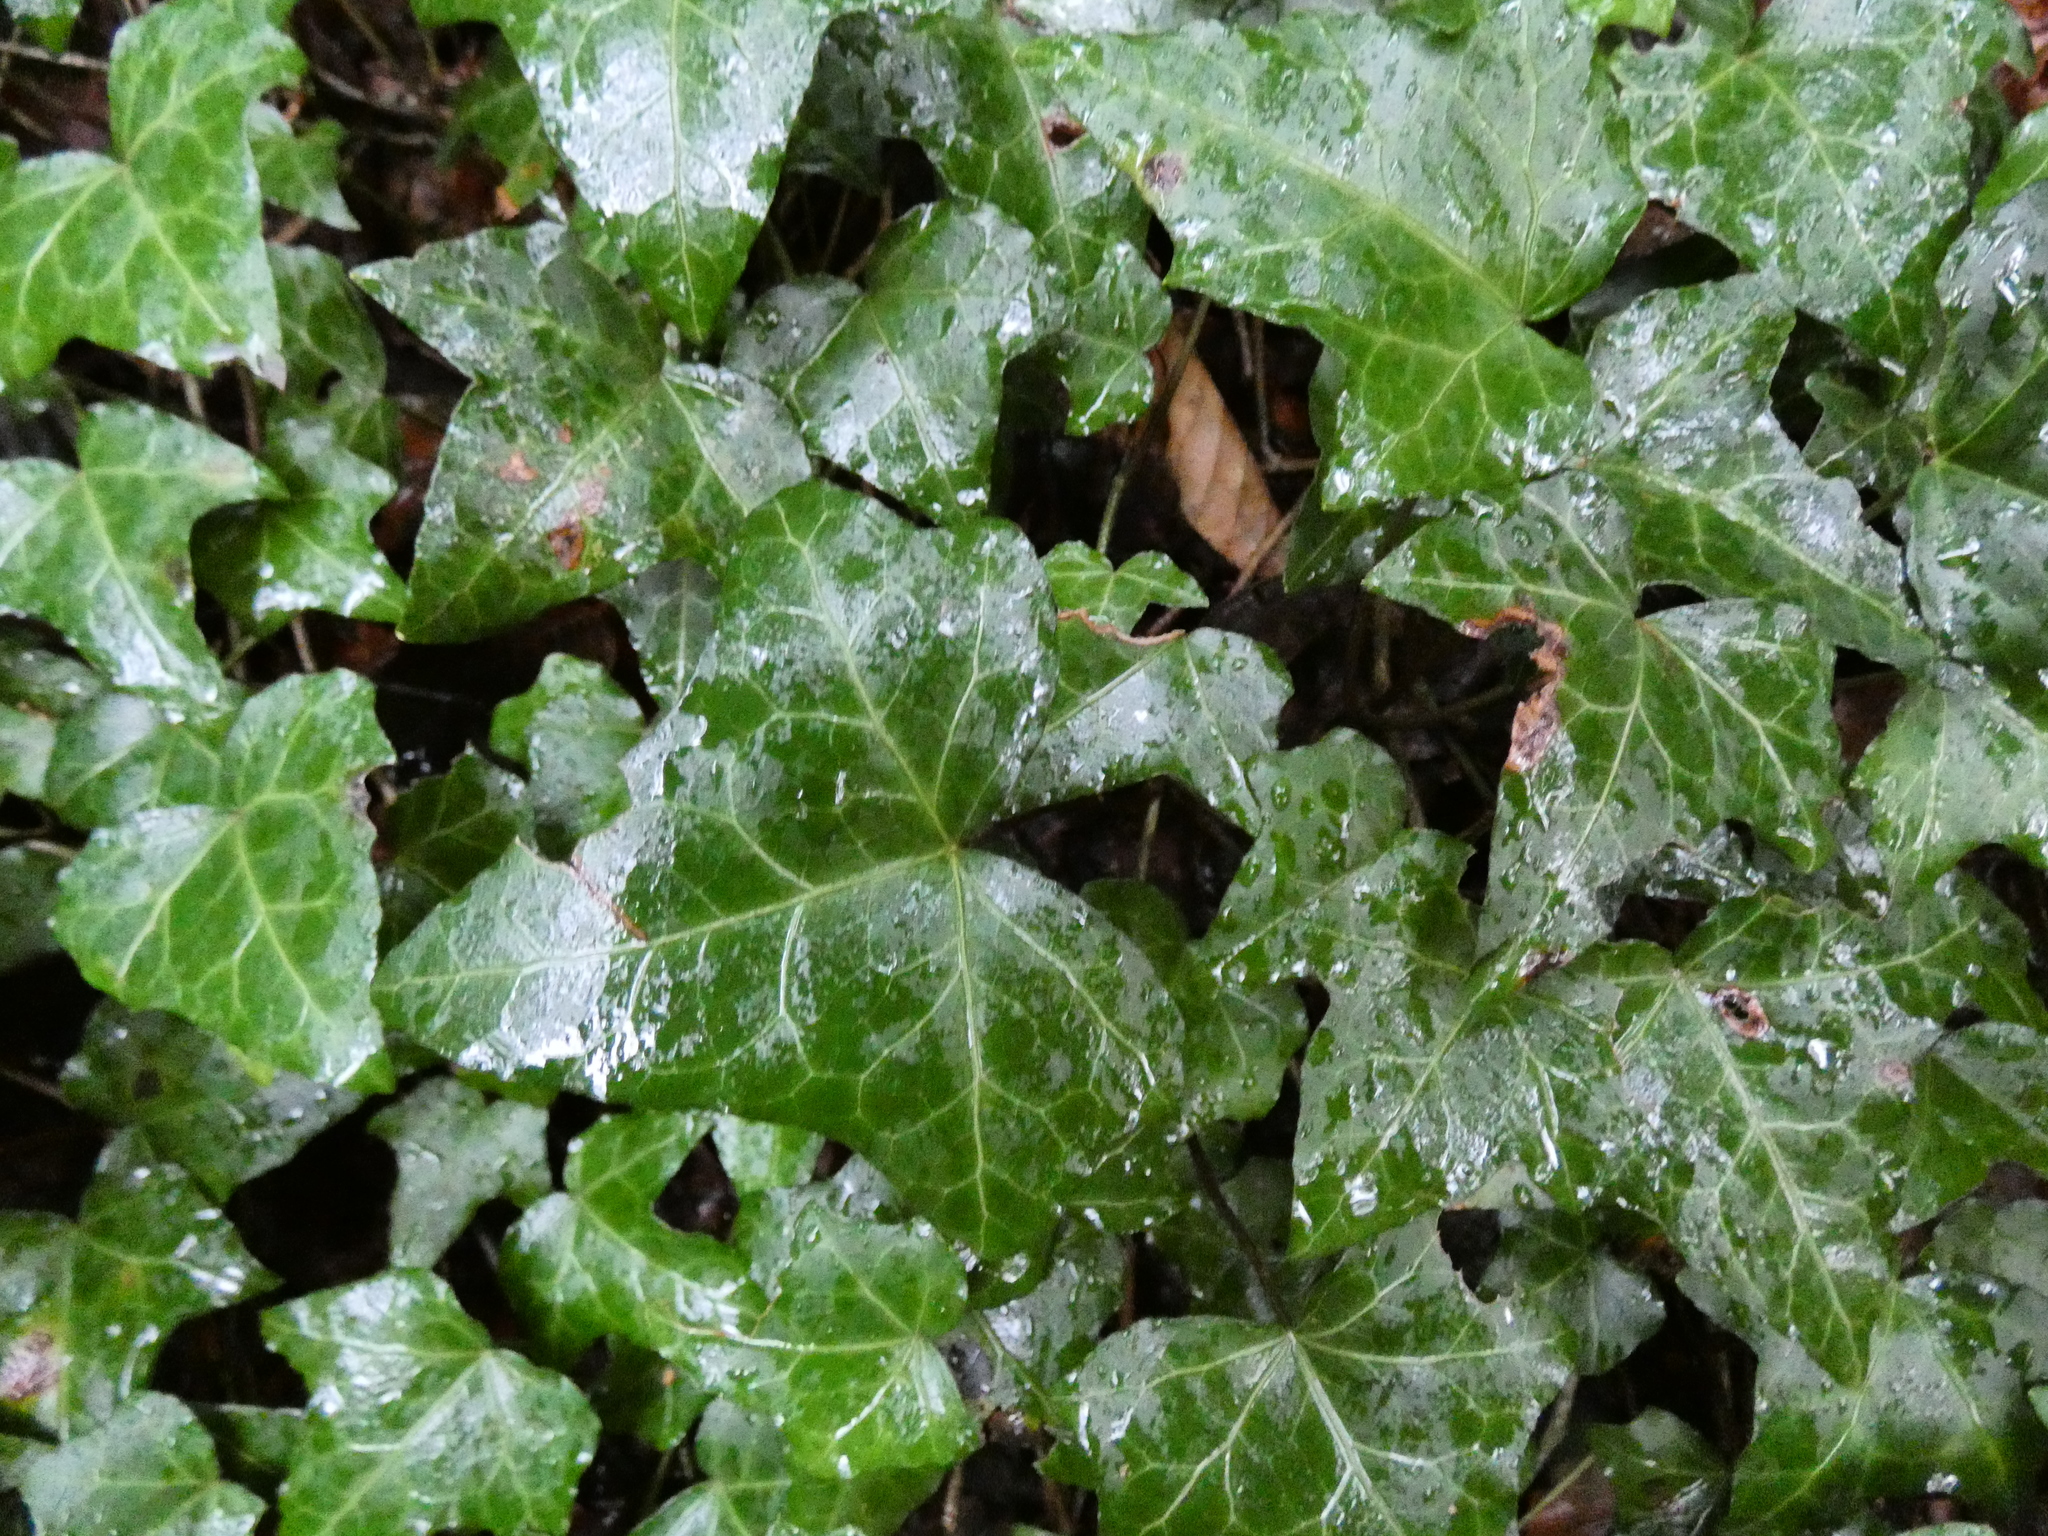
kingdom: Plantae
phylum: Tracheophyta
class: Magnoliopsida
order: Apiales
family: Araliaceae
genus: Hedera
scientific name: Hedera helix
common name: Ivy
